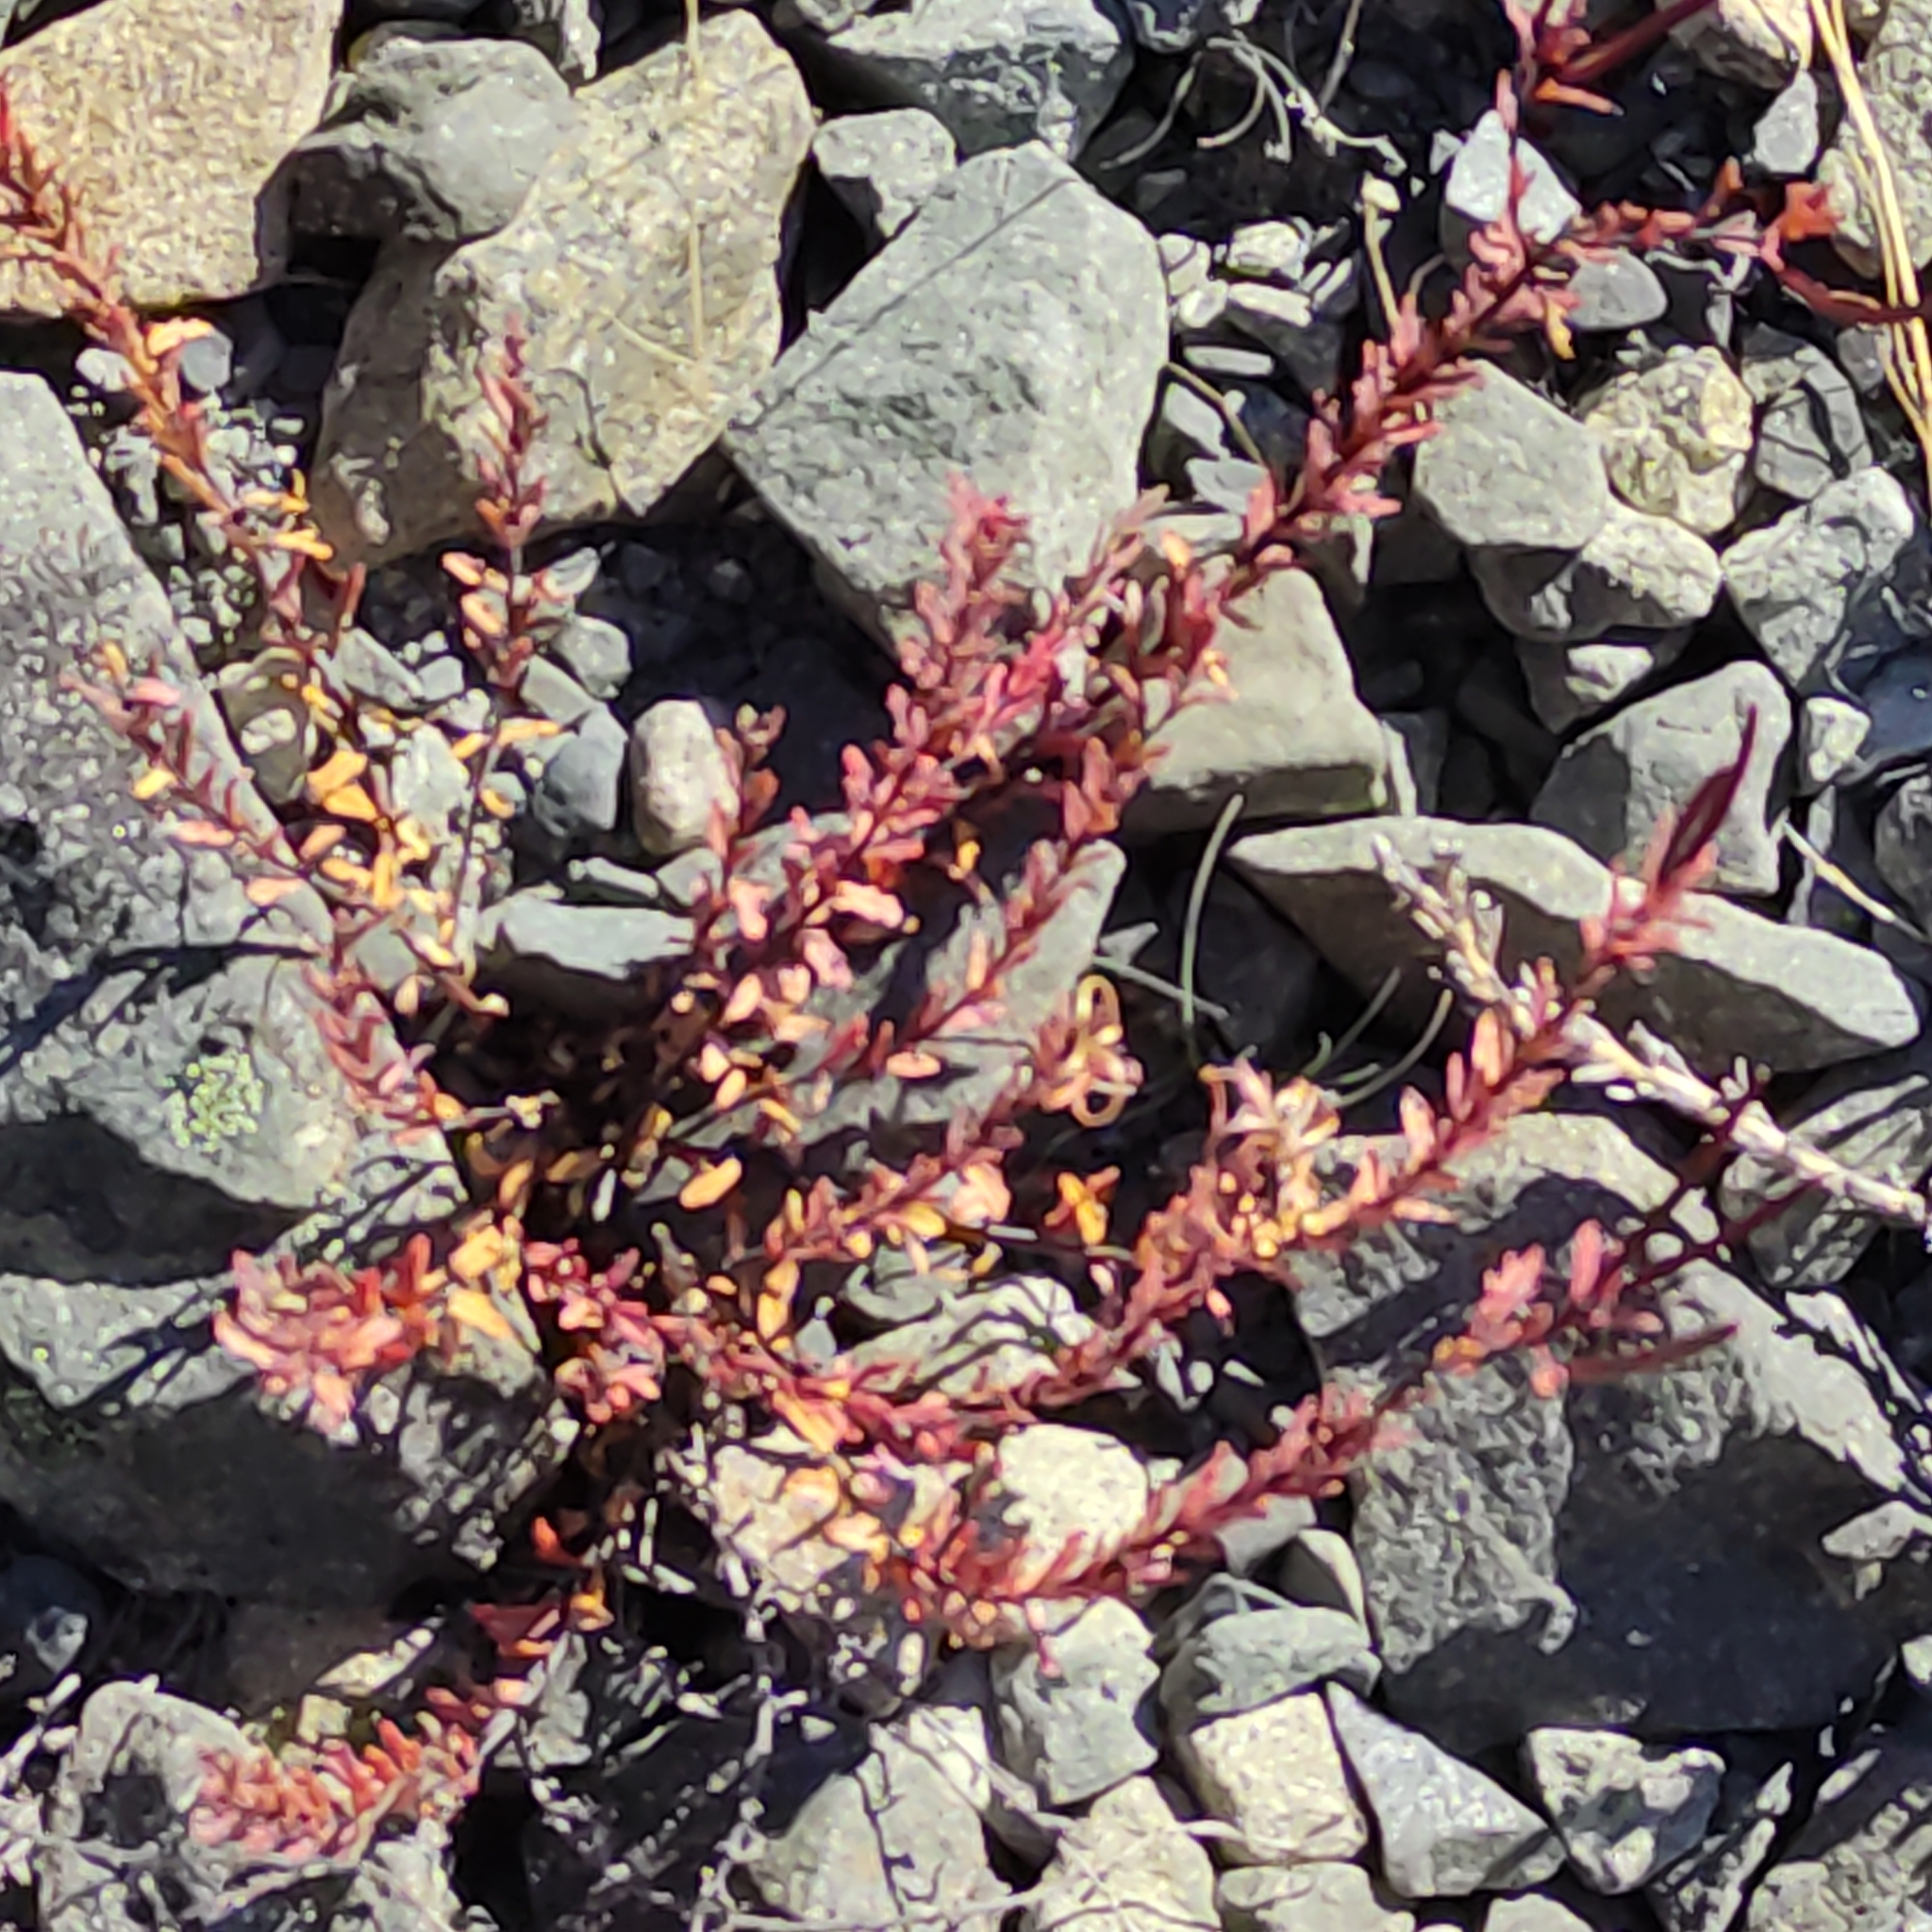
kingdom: Plantae
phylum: Tracheophyta
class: Magnoliopsida
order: Myrtales
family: Onagraceae
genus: Epilobium
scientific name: Epilobium melanocaulon
